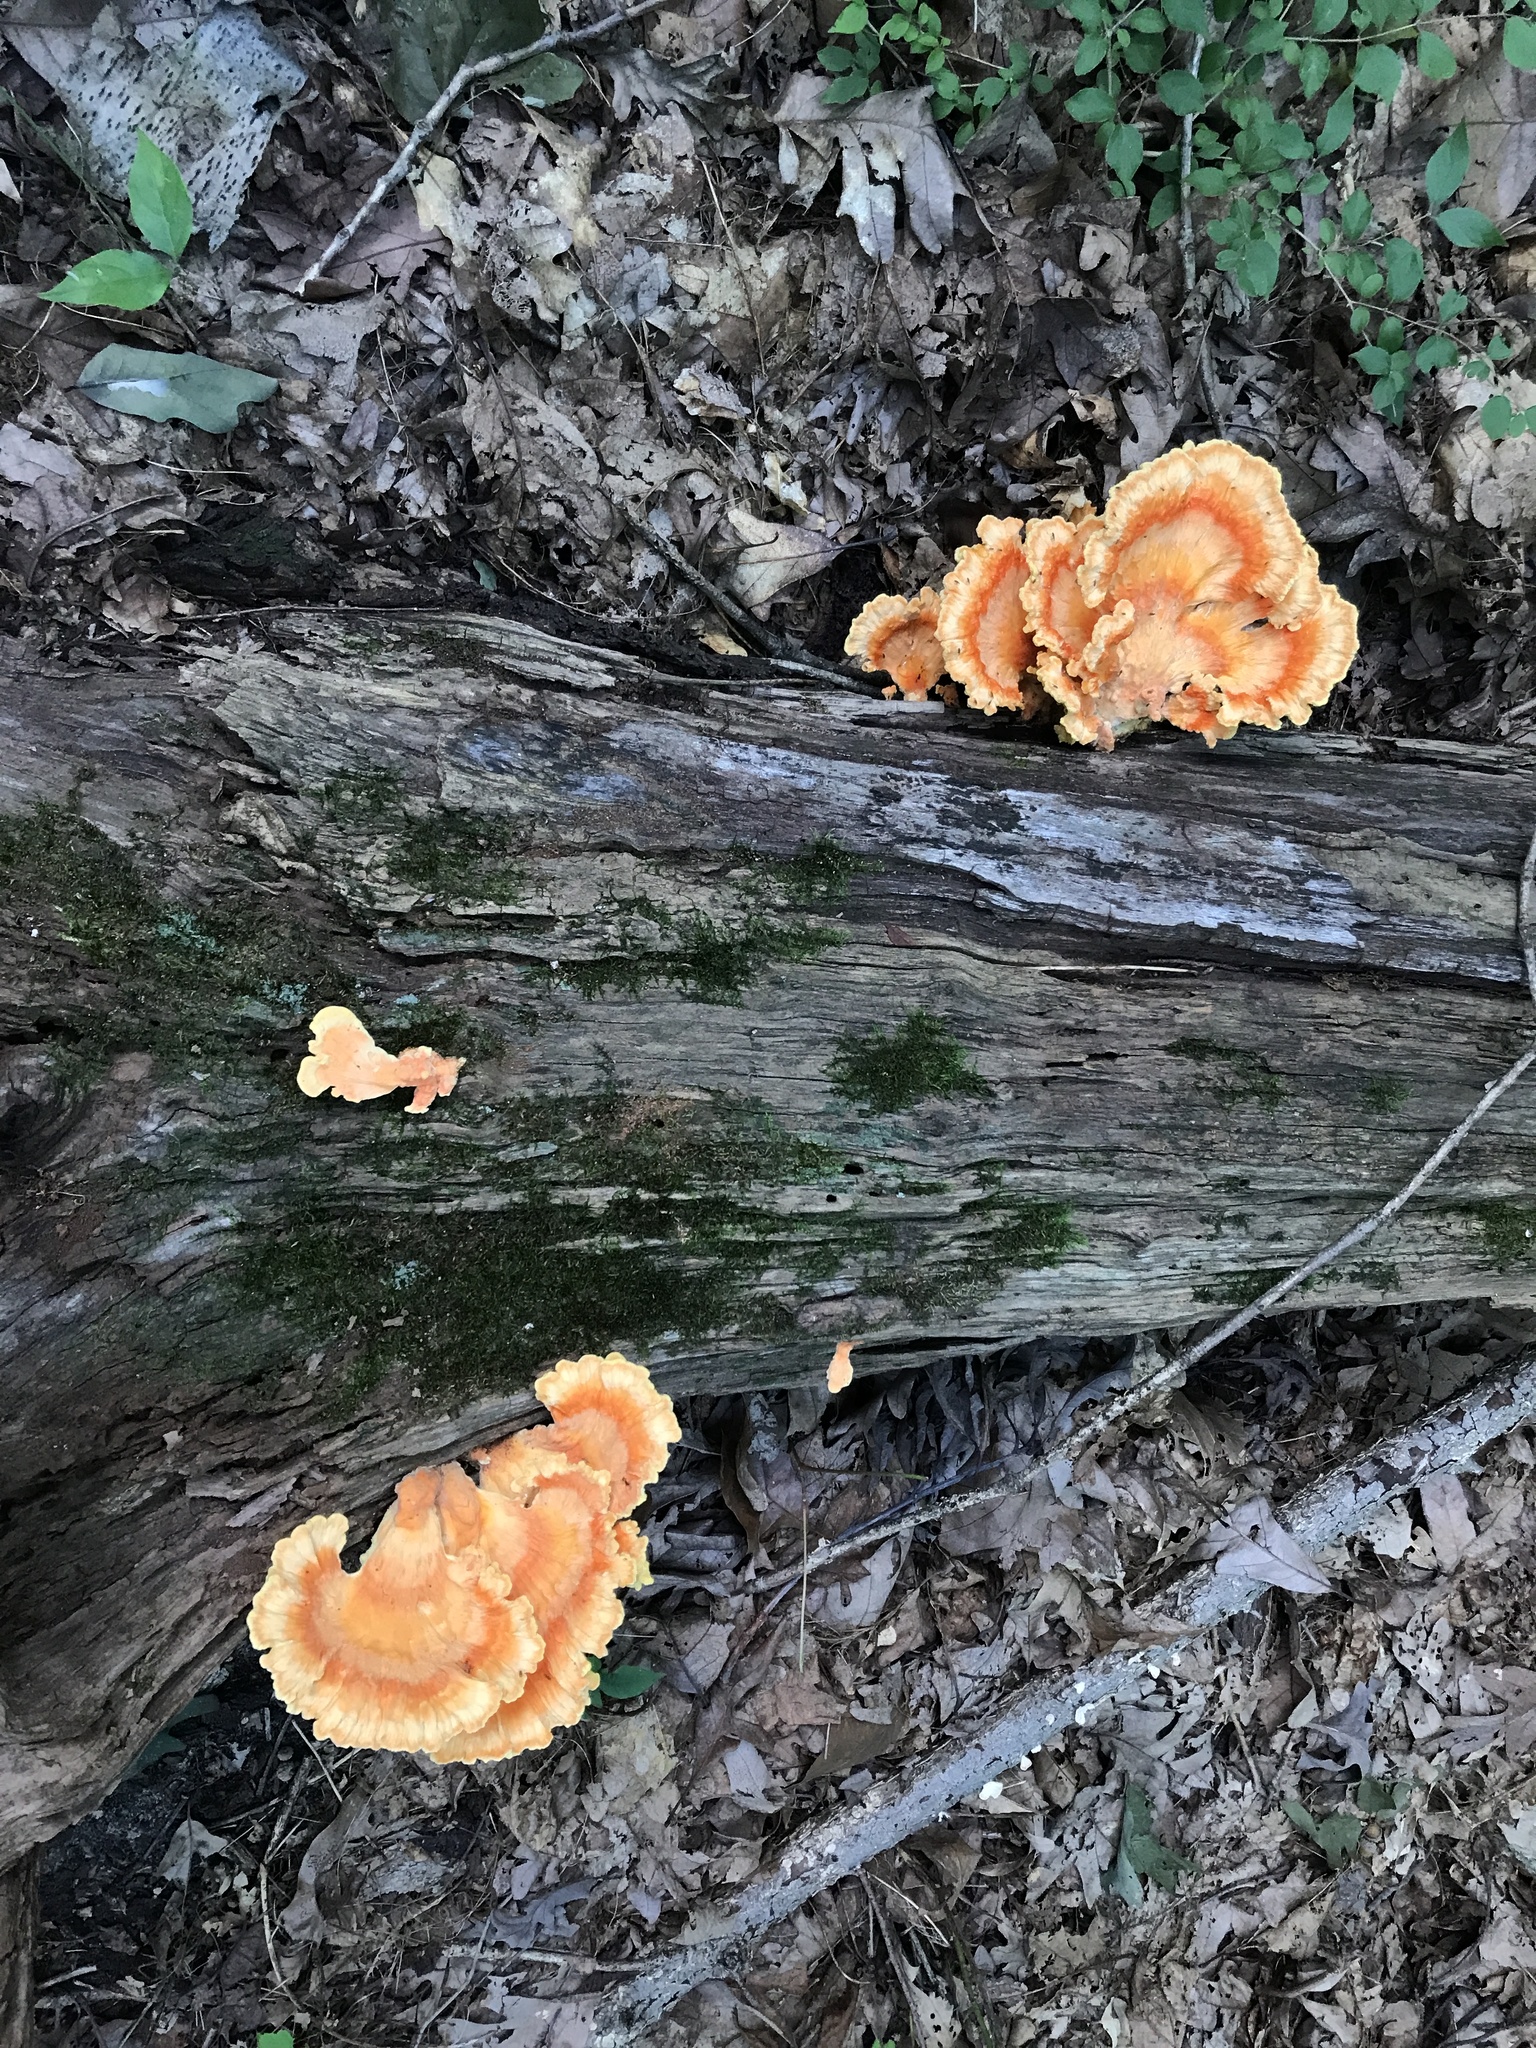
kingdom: Fungi
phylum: Basidiomycota
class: Agaricomycetes
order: Polyporales
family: Laetiporaceae
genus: Laetiporus
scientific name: Laetiporus sulphureus
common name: Chicken of the woods
